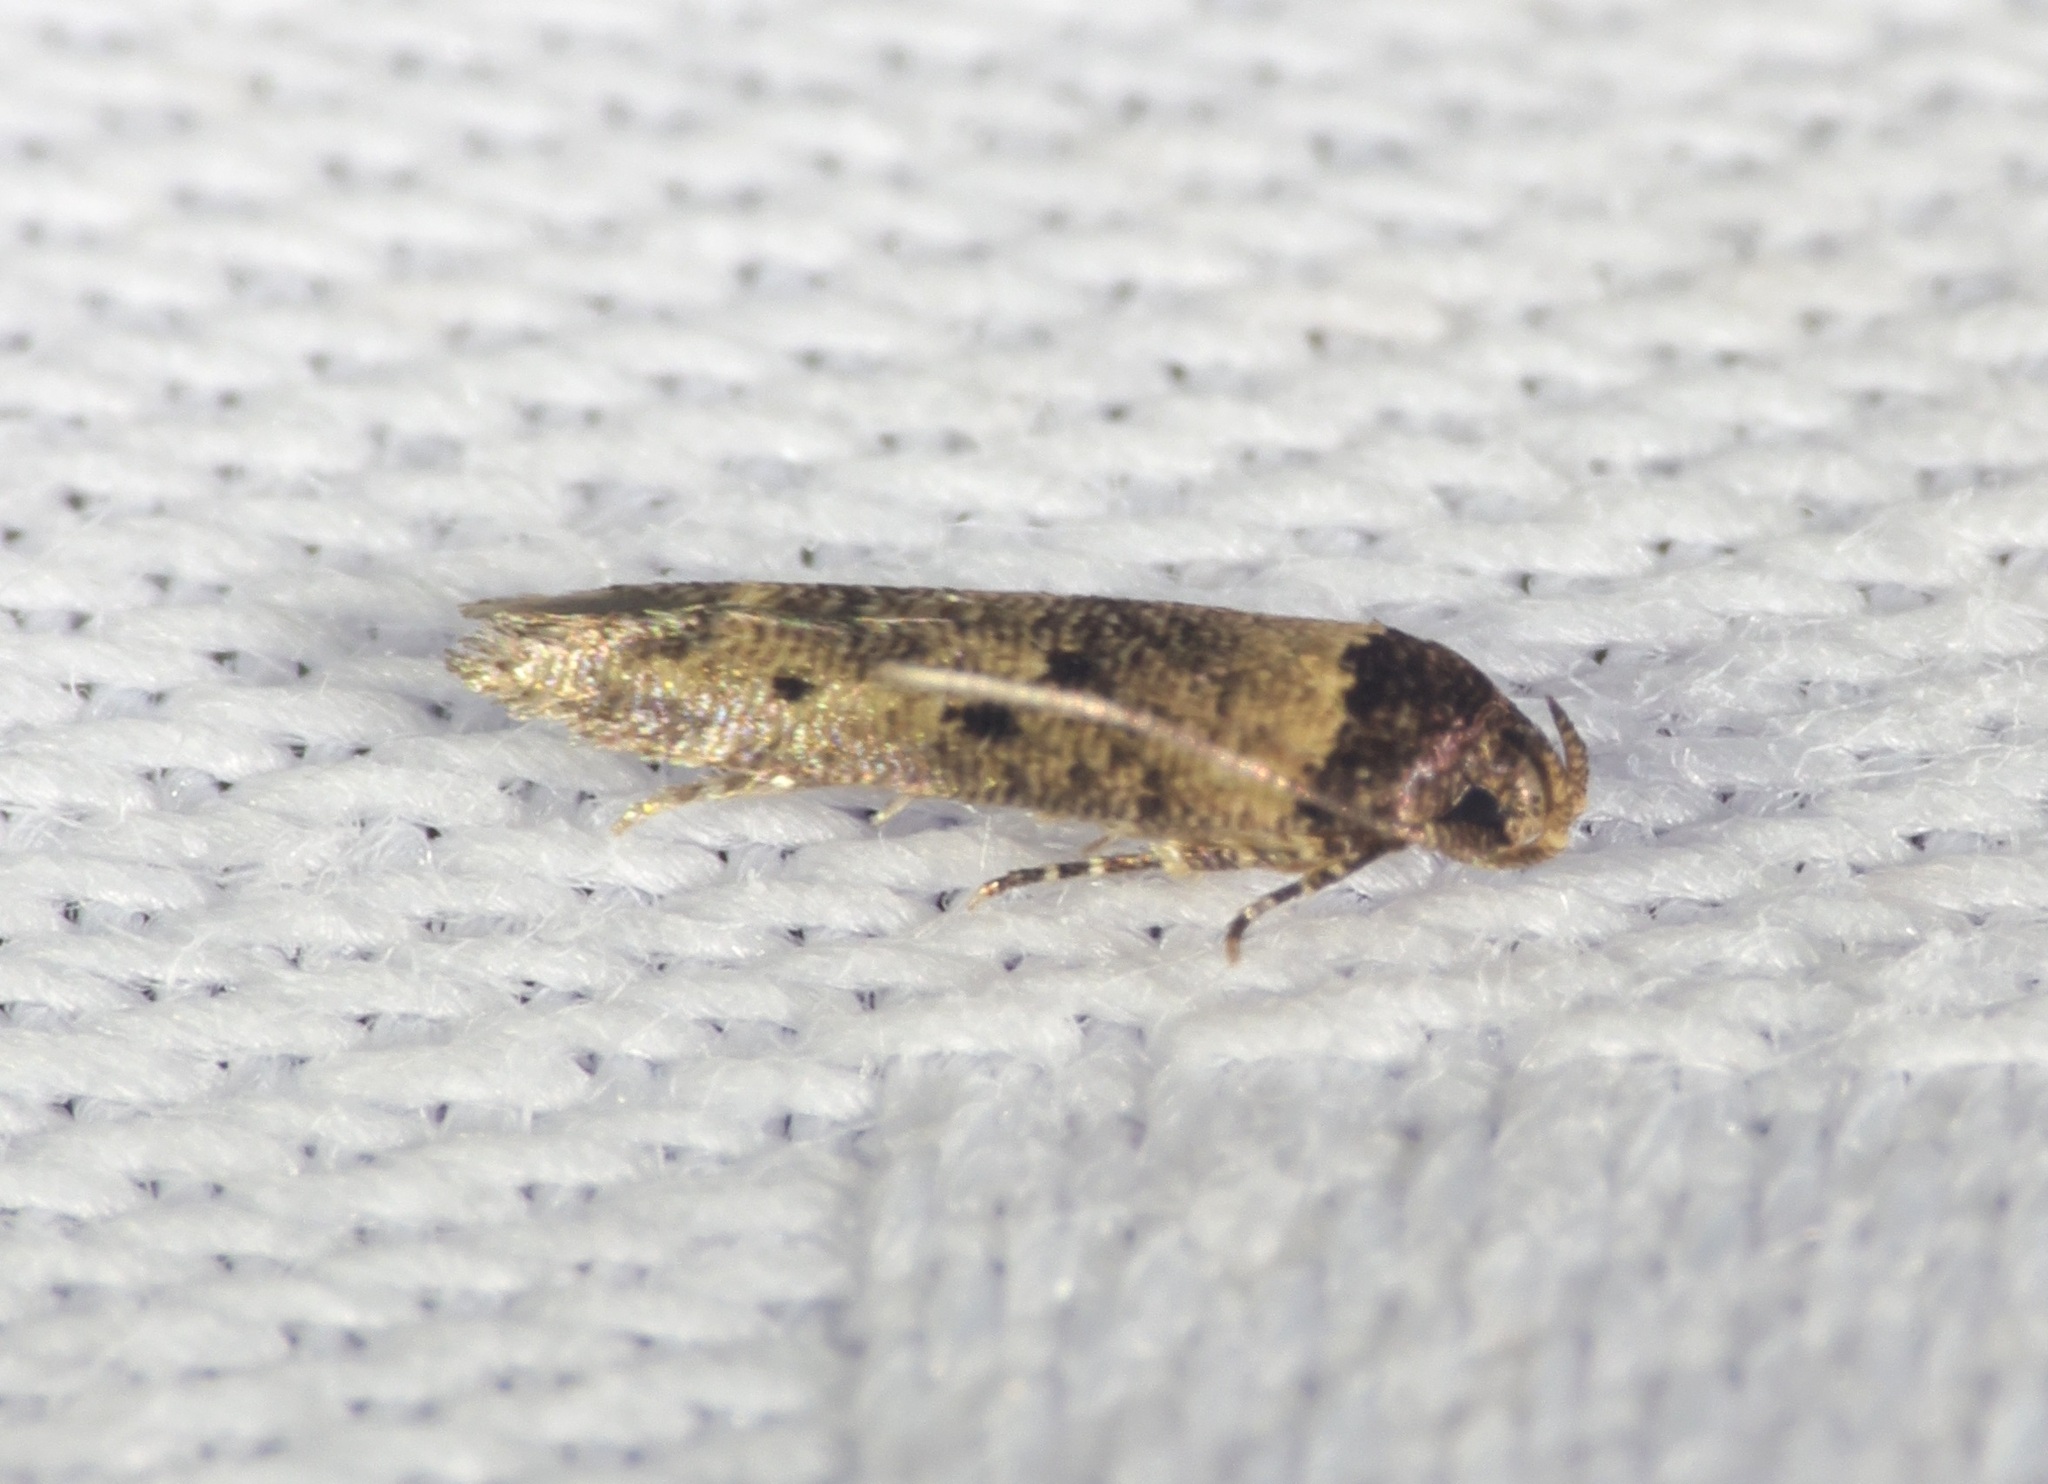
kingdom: Animalia
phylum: Arthropoda
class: Insecta
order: Lepidoptera
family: Cosmopterigidae
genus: Gisilia
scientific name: Gisilia thoracista
